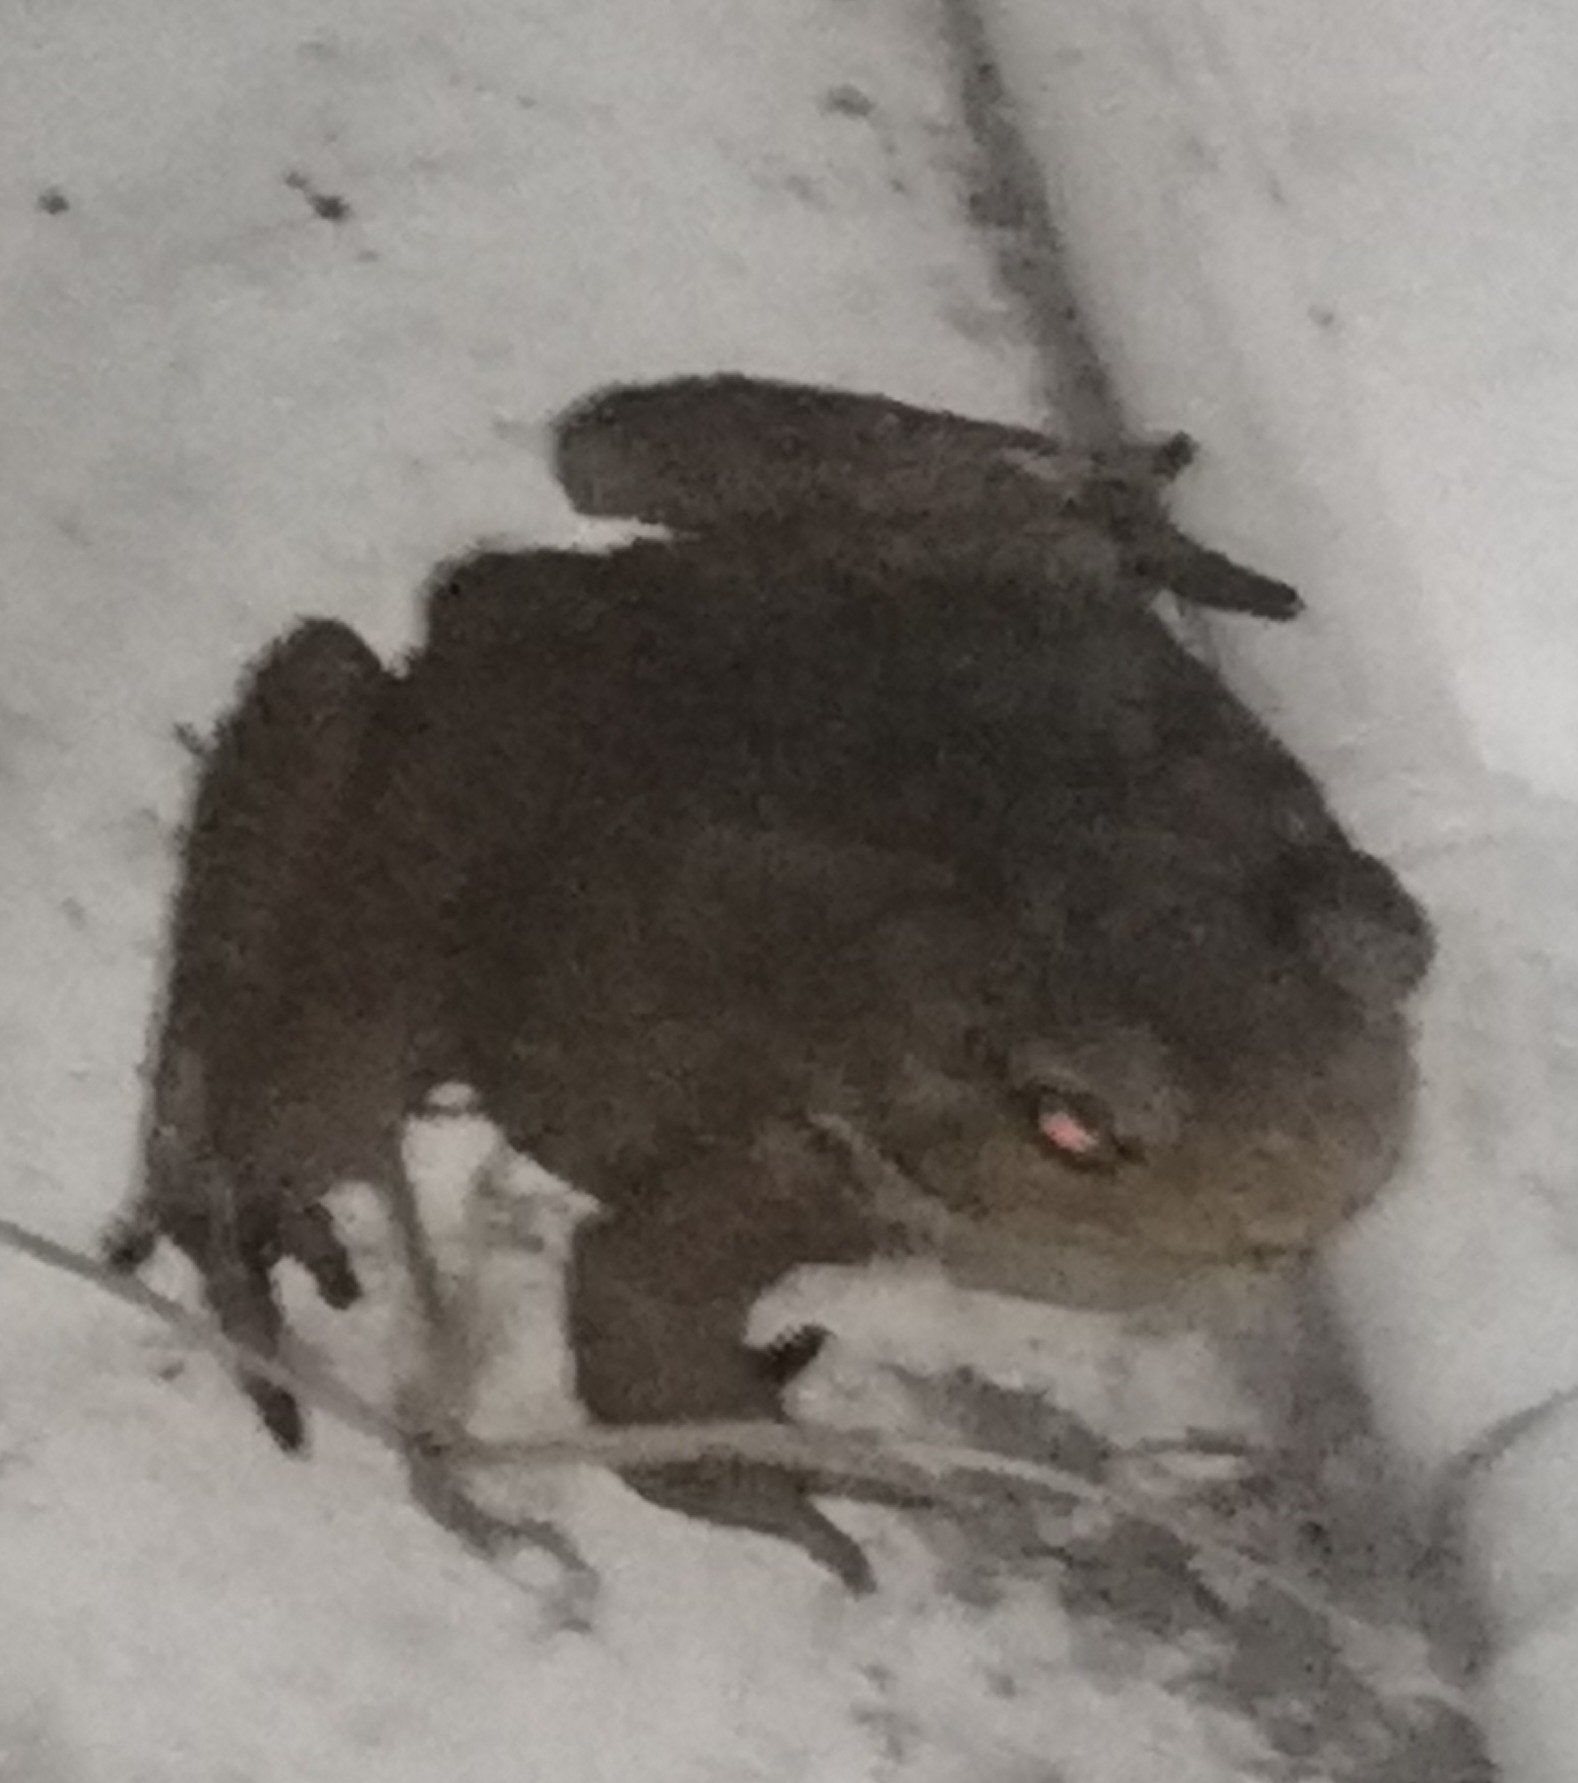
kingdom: Animalia
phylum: Chordata
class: Amphibia
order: Anura
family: Bufonidae
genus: Rhinella
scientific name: Rhinella horribilis
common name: Mesoamerican cane toad
